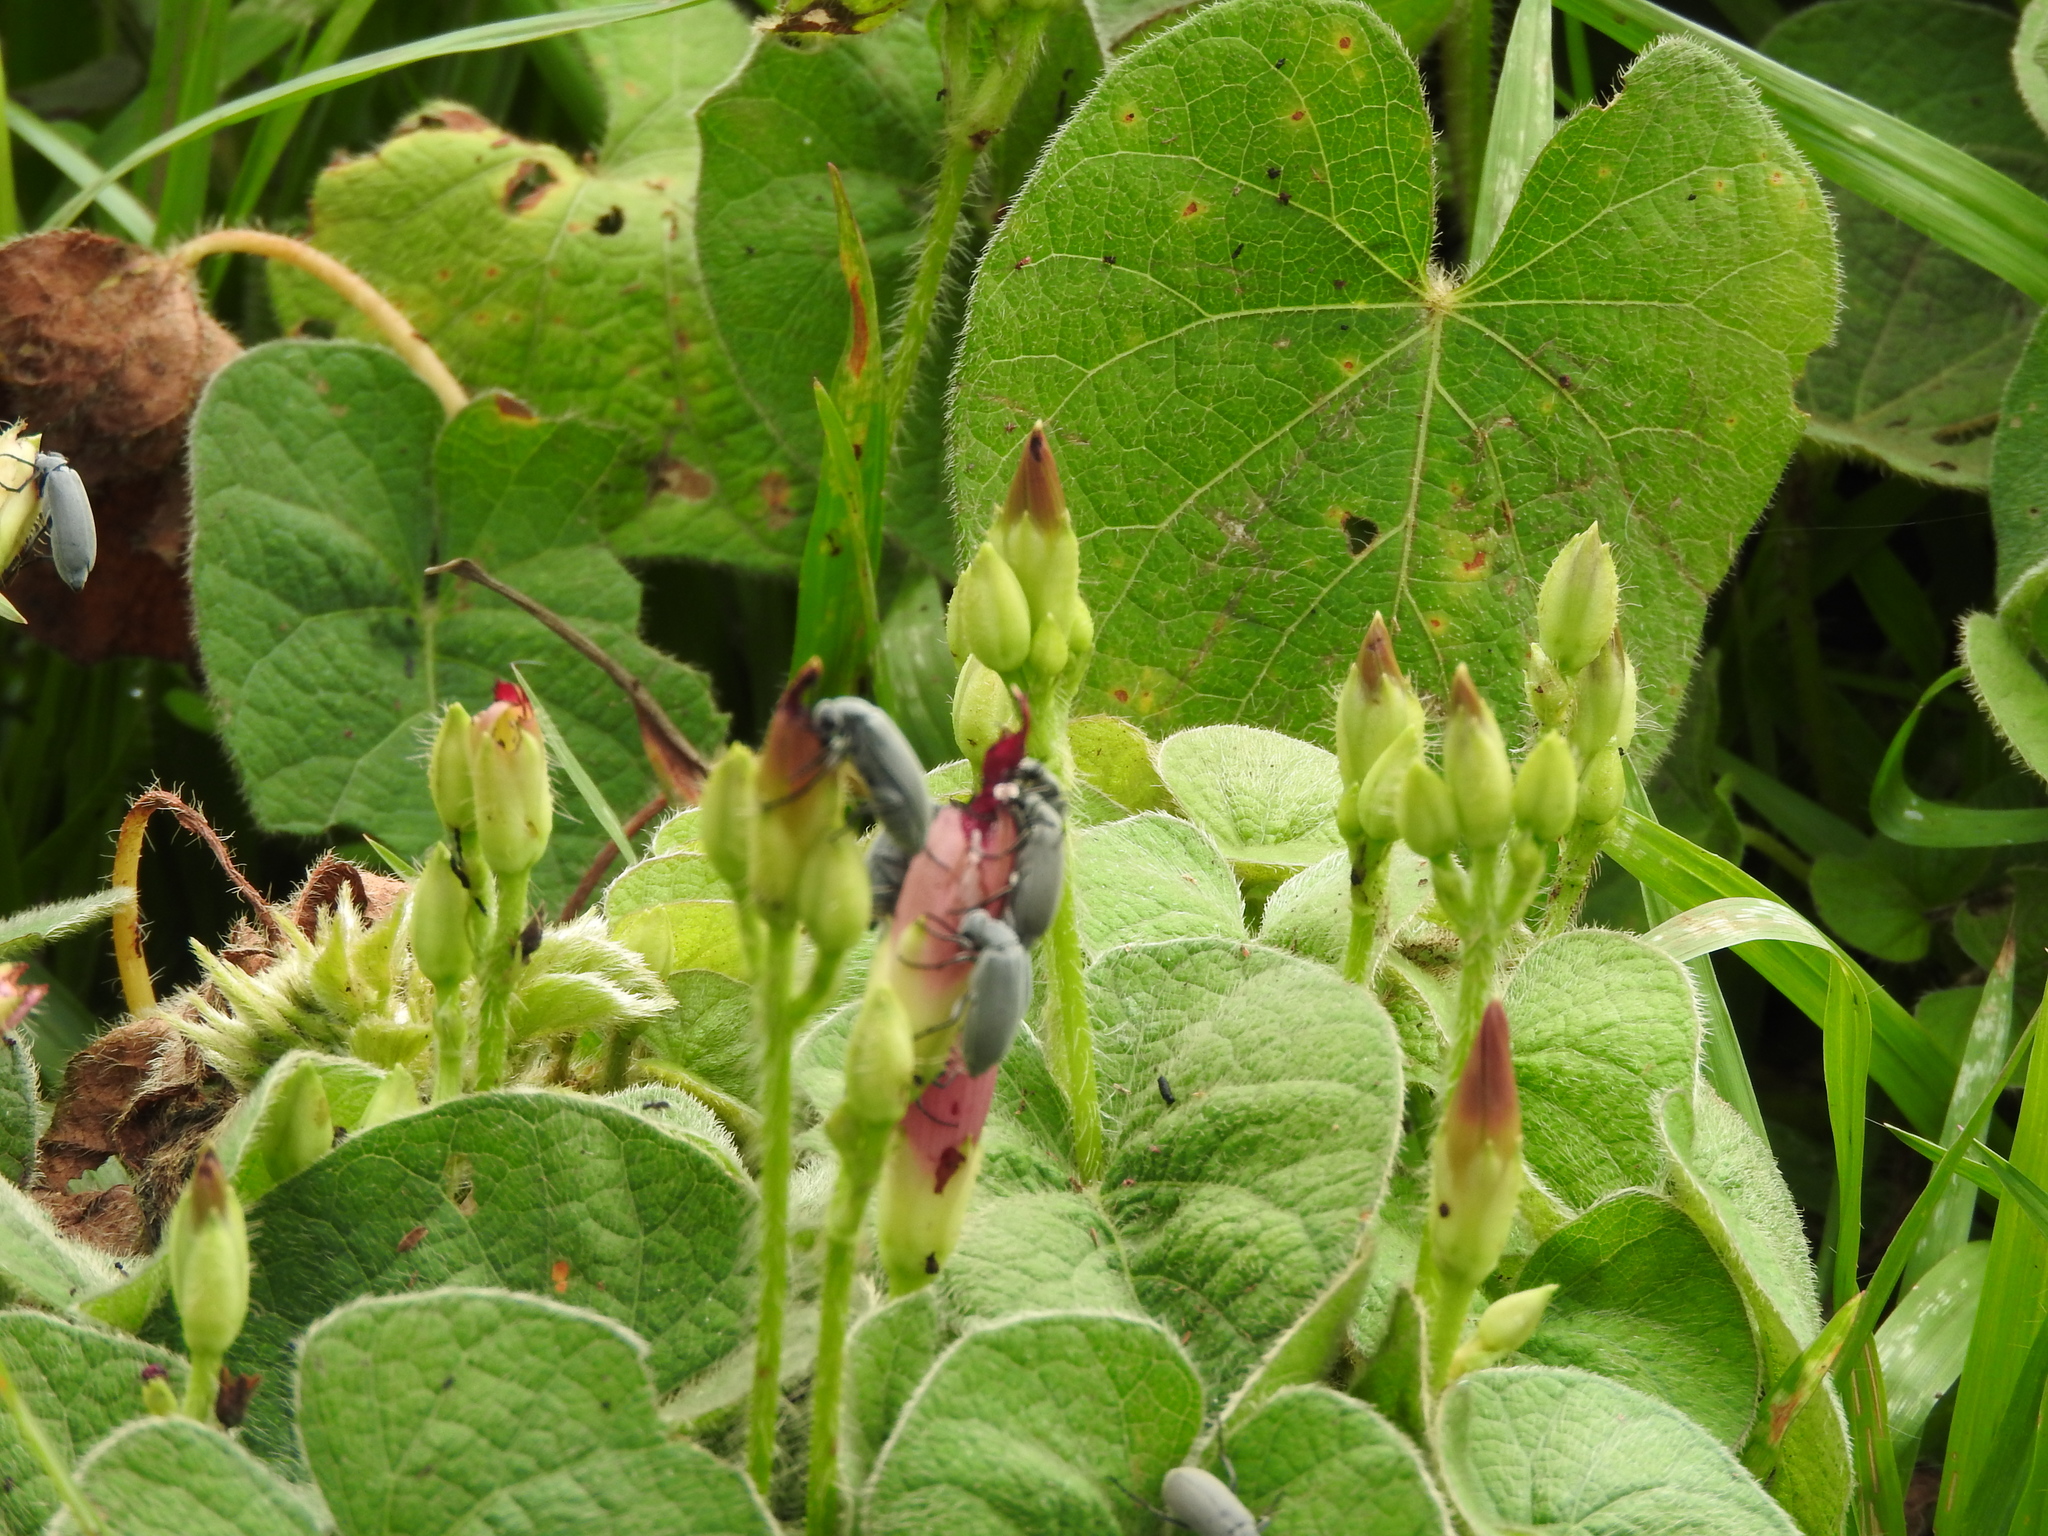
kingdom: Plantae
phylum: Tracheophyta
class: Magnoliopsida
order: Solanales
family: Convolvulaceae
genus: Ipomoea
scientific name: Ipomoea orizabensis
